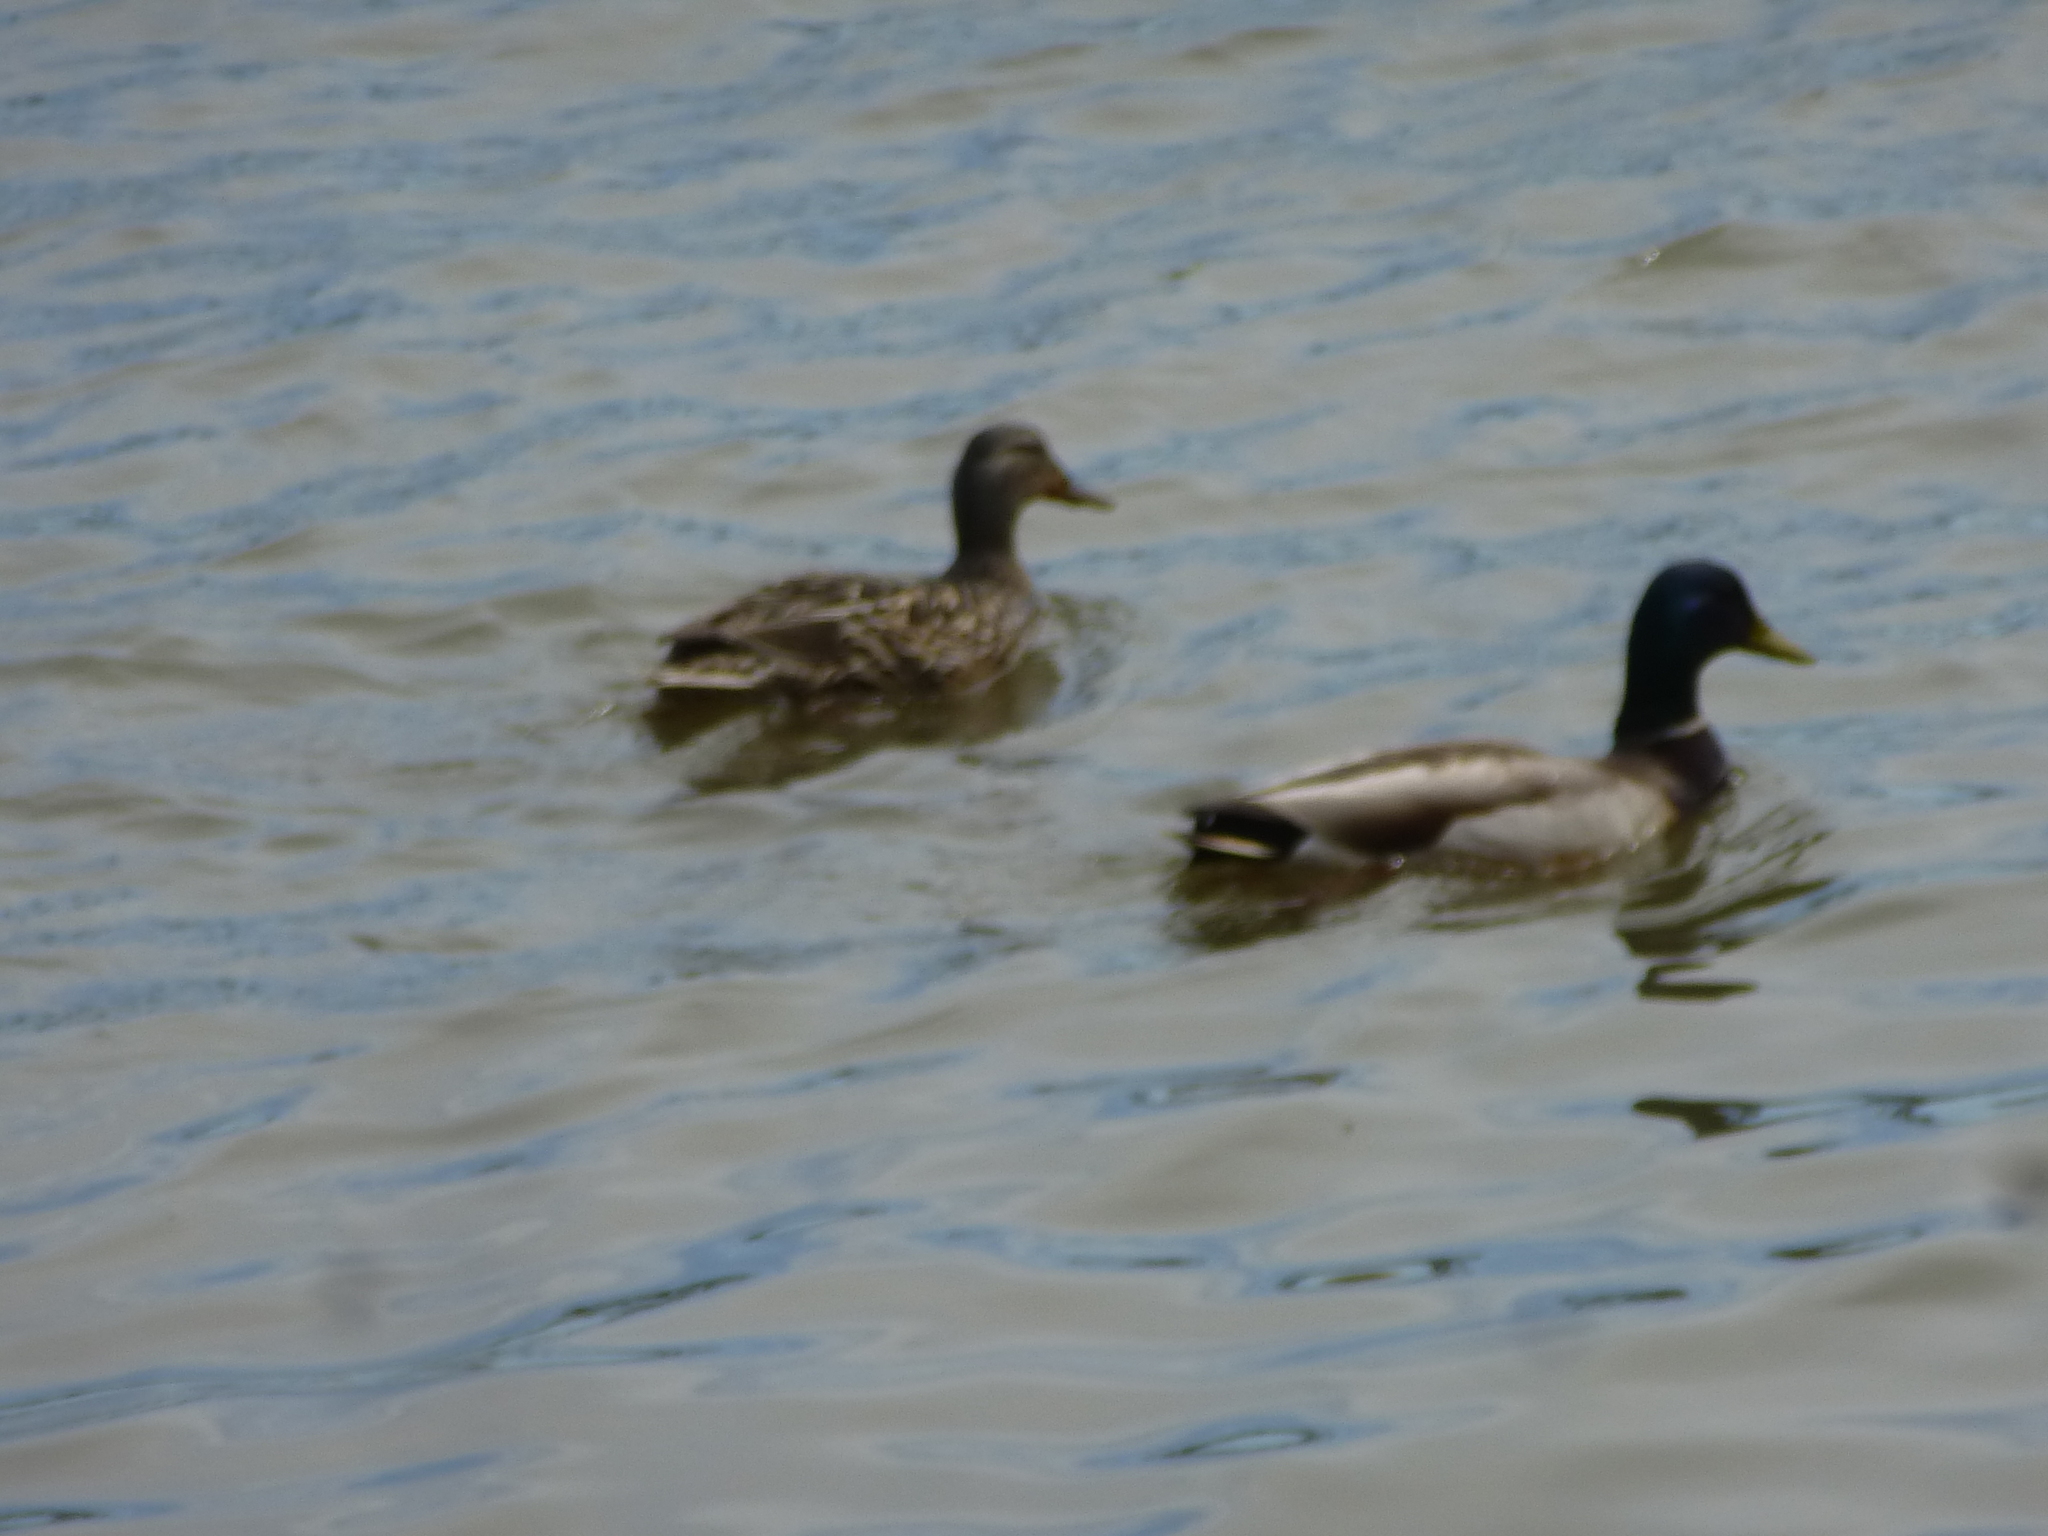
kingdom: Animalia
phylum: Chordata
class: Aves
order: Anseriformes
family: Anatidae
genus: Anas
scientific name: Anas platyrhynchos
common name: Mallard
